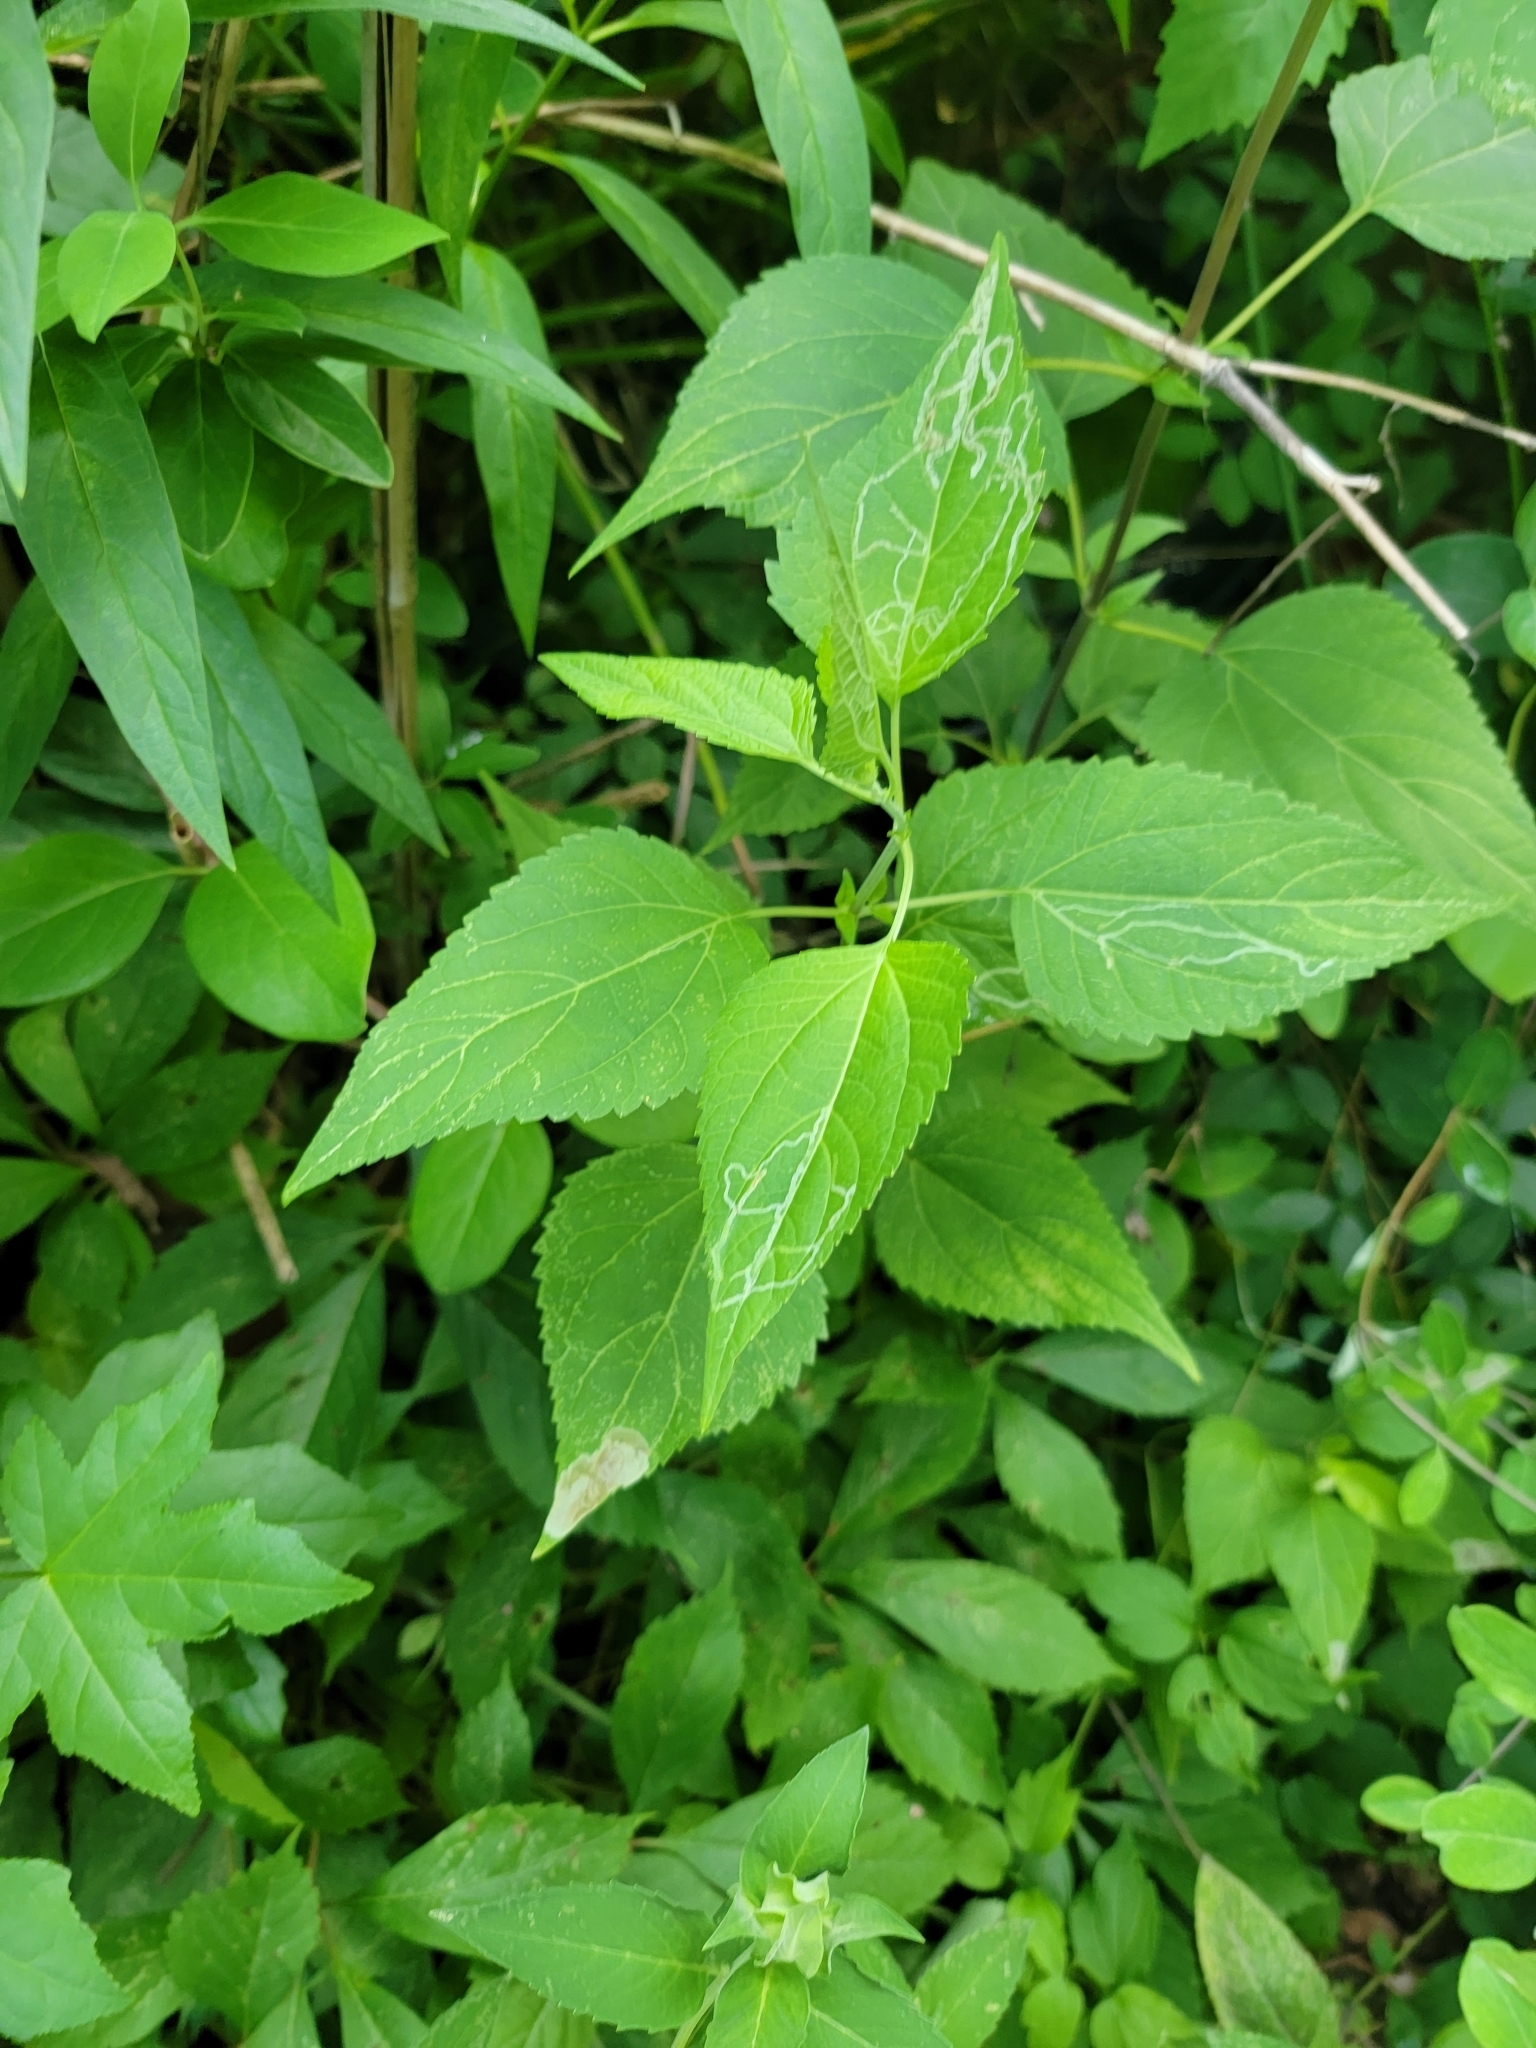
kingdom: Plantae
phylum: Tracheophyta
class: Magnoliopsida
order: Asterales
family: Asteraceae
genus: Ageratina
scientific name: Ageratina altissima
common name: White snakeroot
